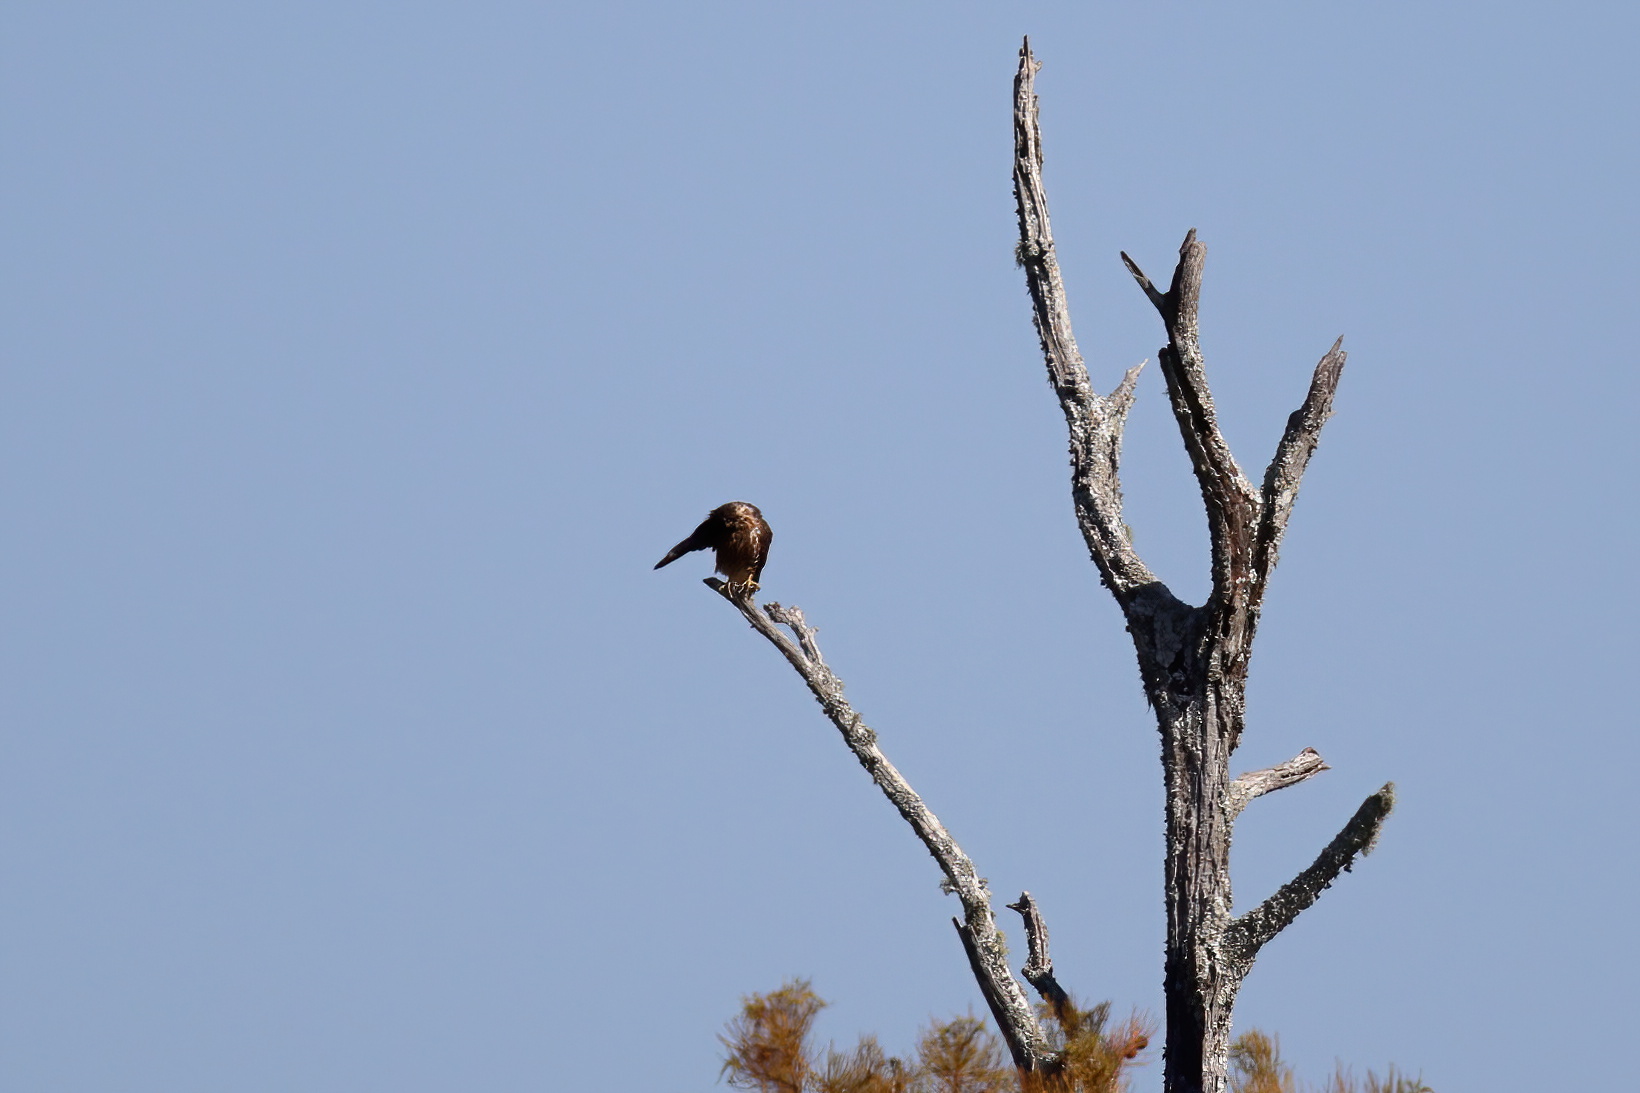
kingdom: Animalia
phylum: Chordata
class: Aves
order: Falconiformes
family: Falconidae
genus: Falco
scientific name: Falco columbarius
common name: Merlin
